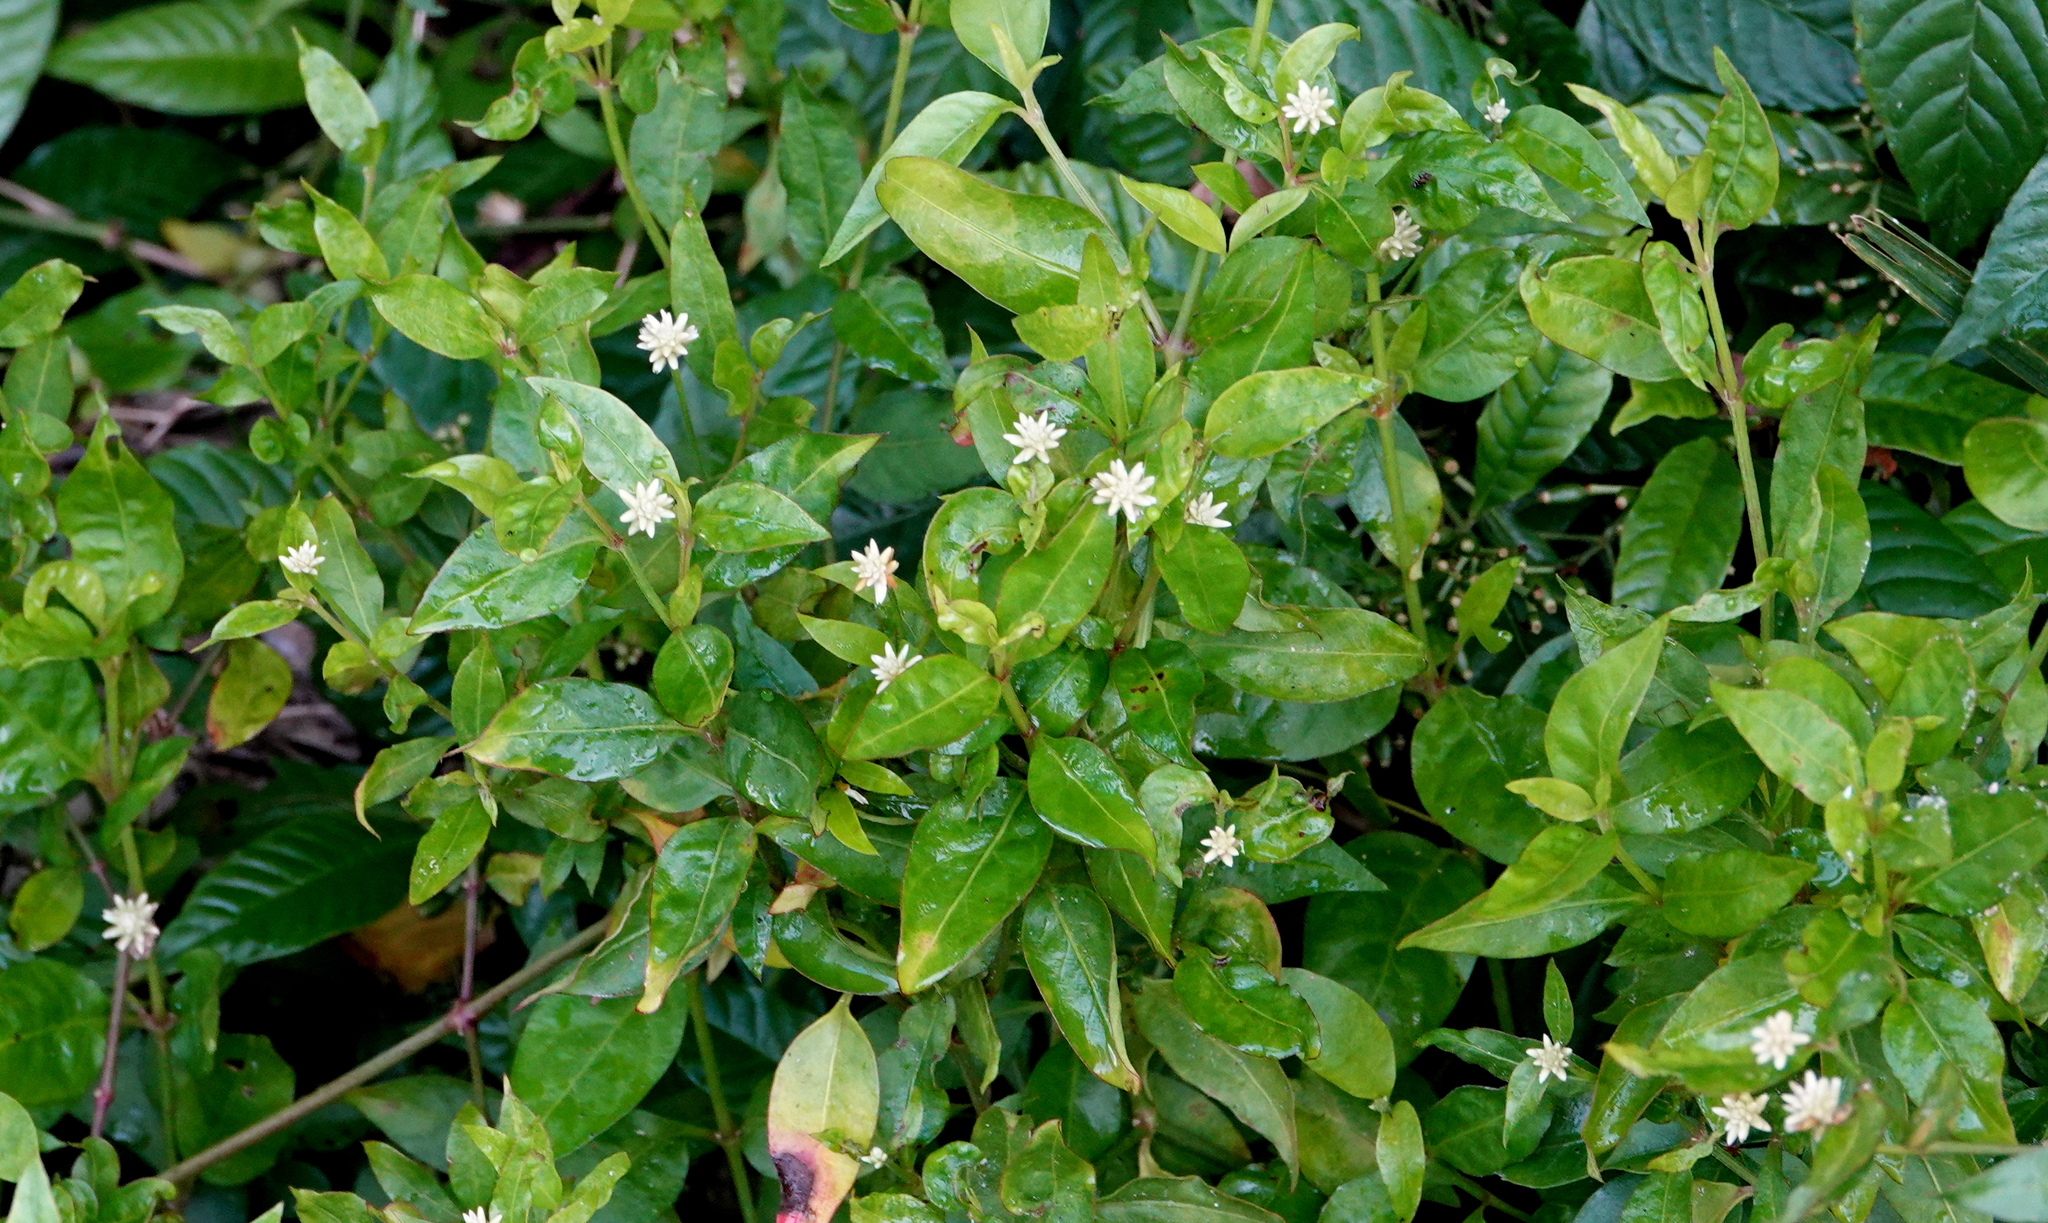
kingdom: Plantae
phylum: Tracheophyta
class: Magnoliopsida
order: Caryophyllales
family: Amaranthaceae
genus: Alternanthera
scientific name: Alternanthera flavescens
